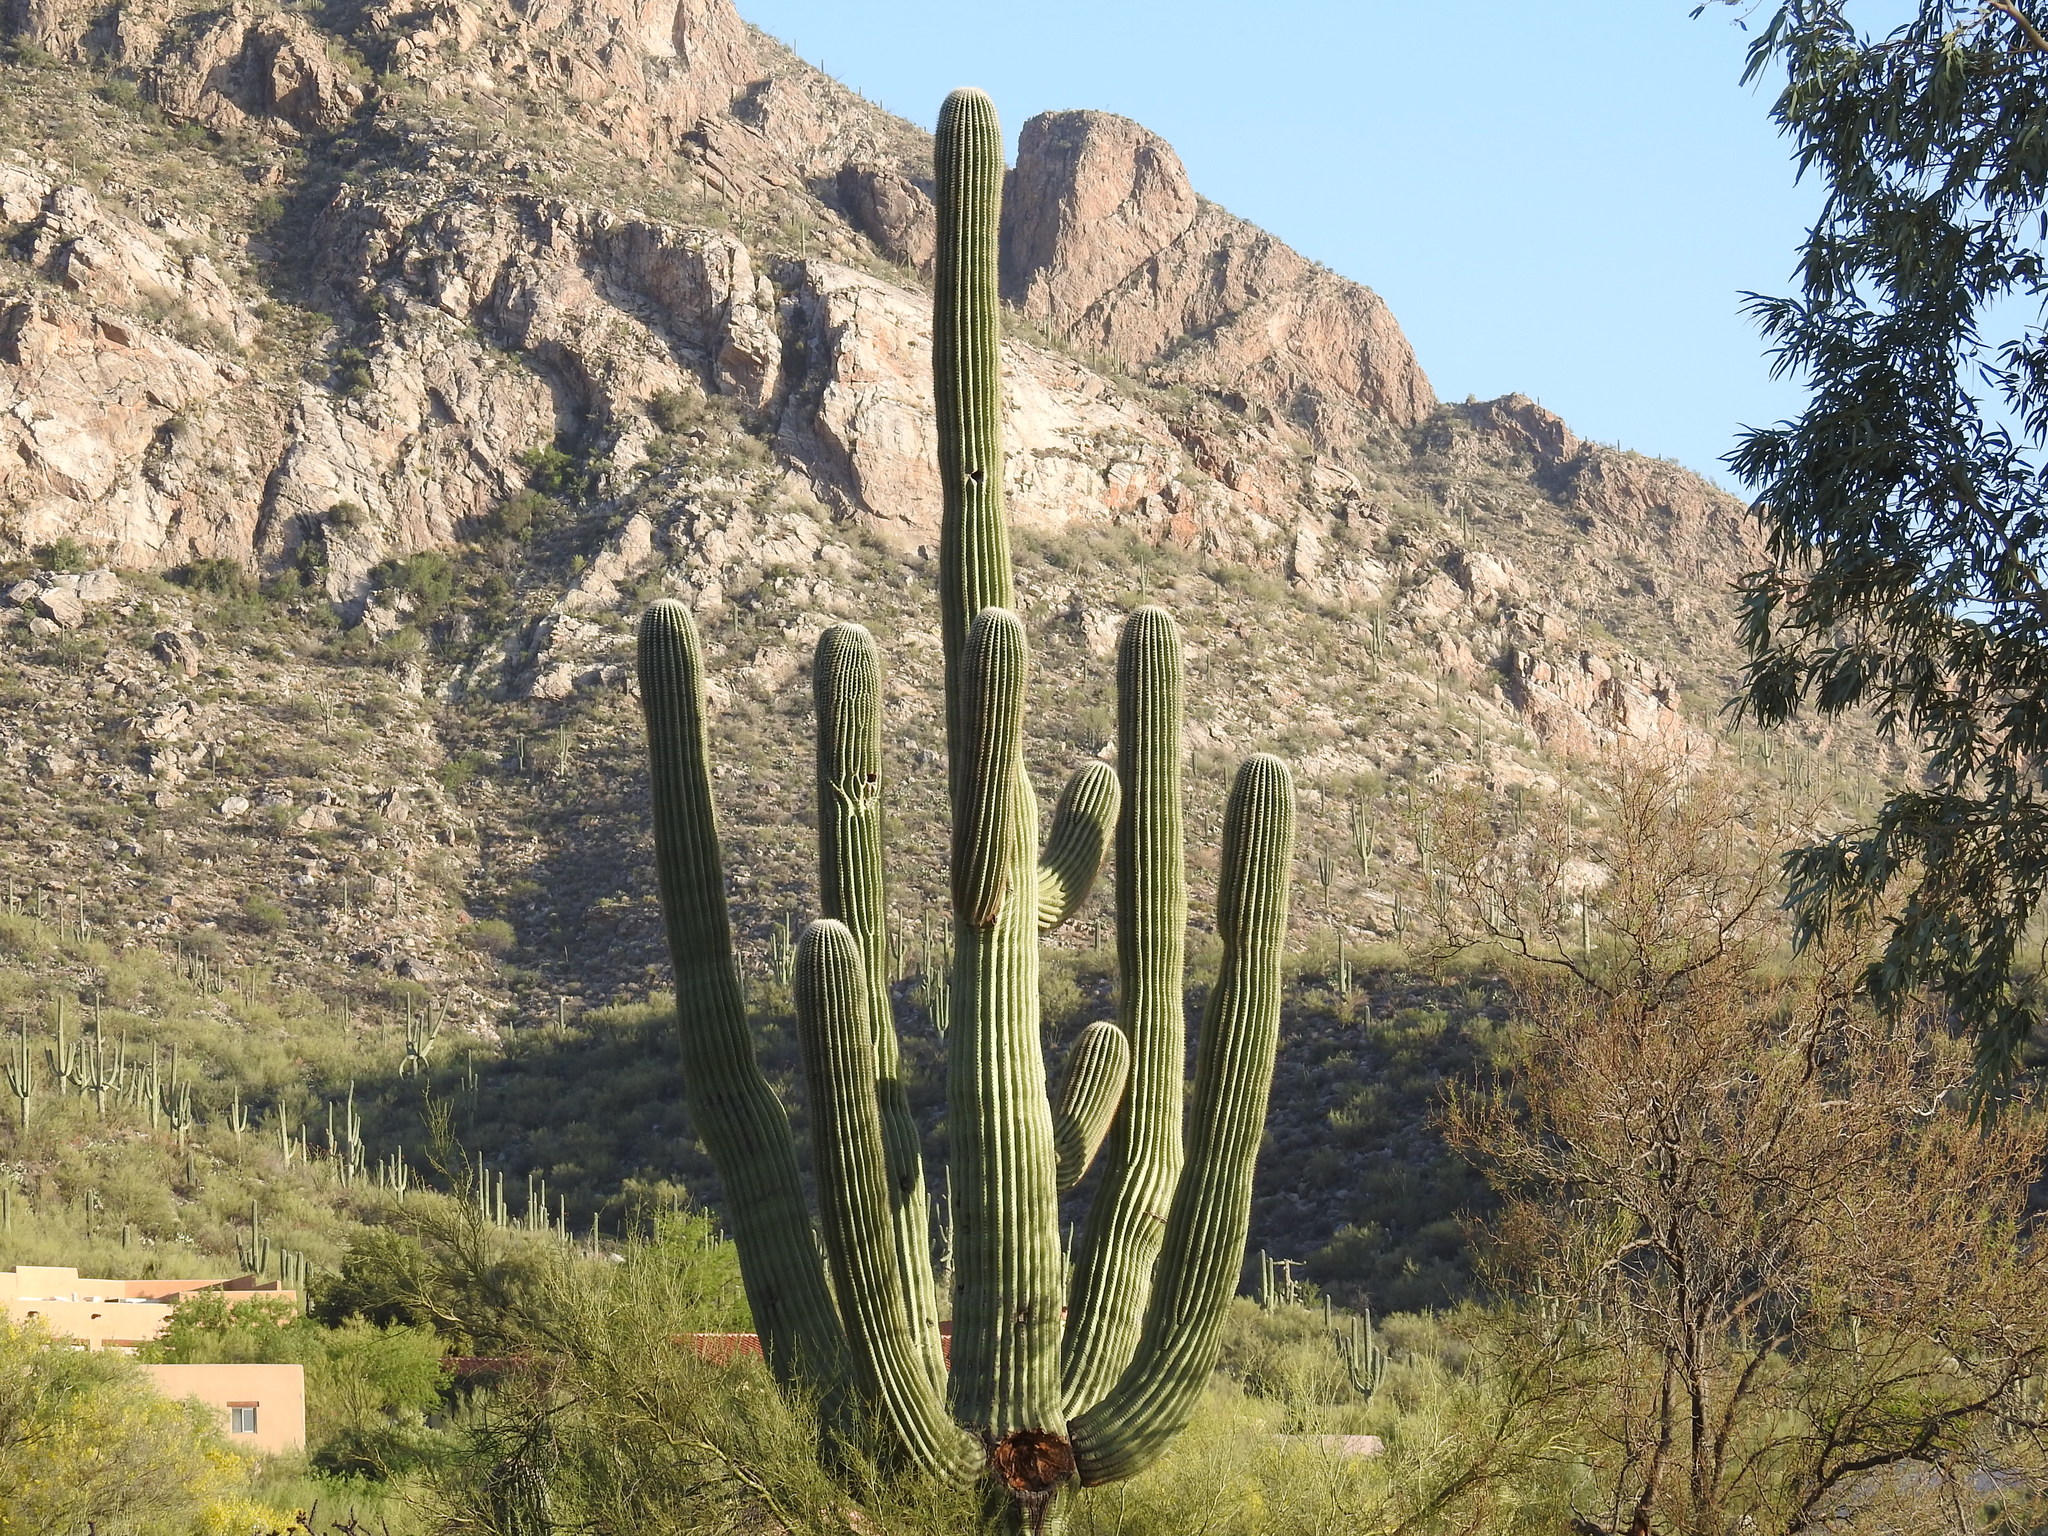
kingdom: Plantae
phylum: Tracheophyta
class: Magnoliopsida
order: Caryophyllales
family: Cactaceae
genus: Carnegiea
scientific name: Carnegiea gigantea
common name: Saguaro
